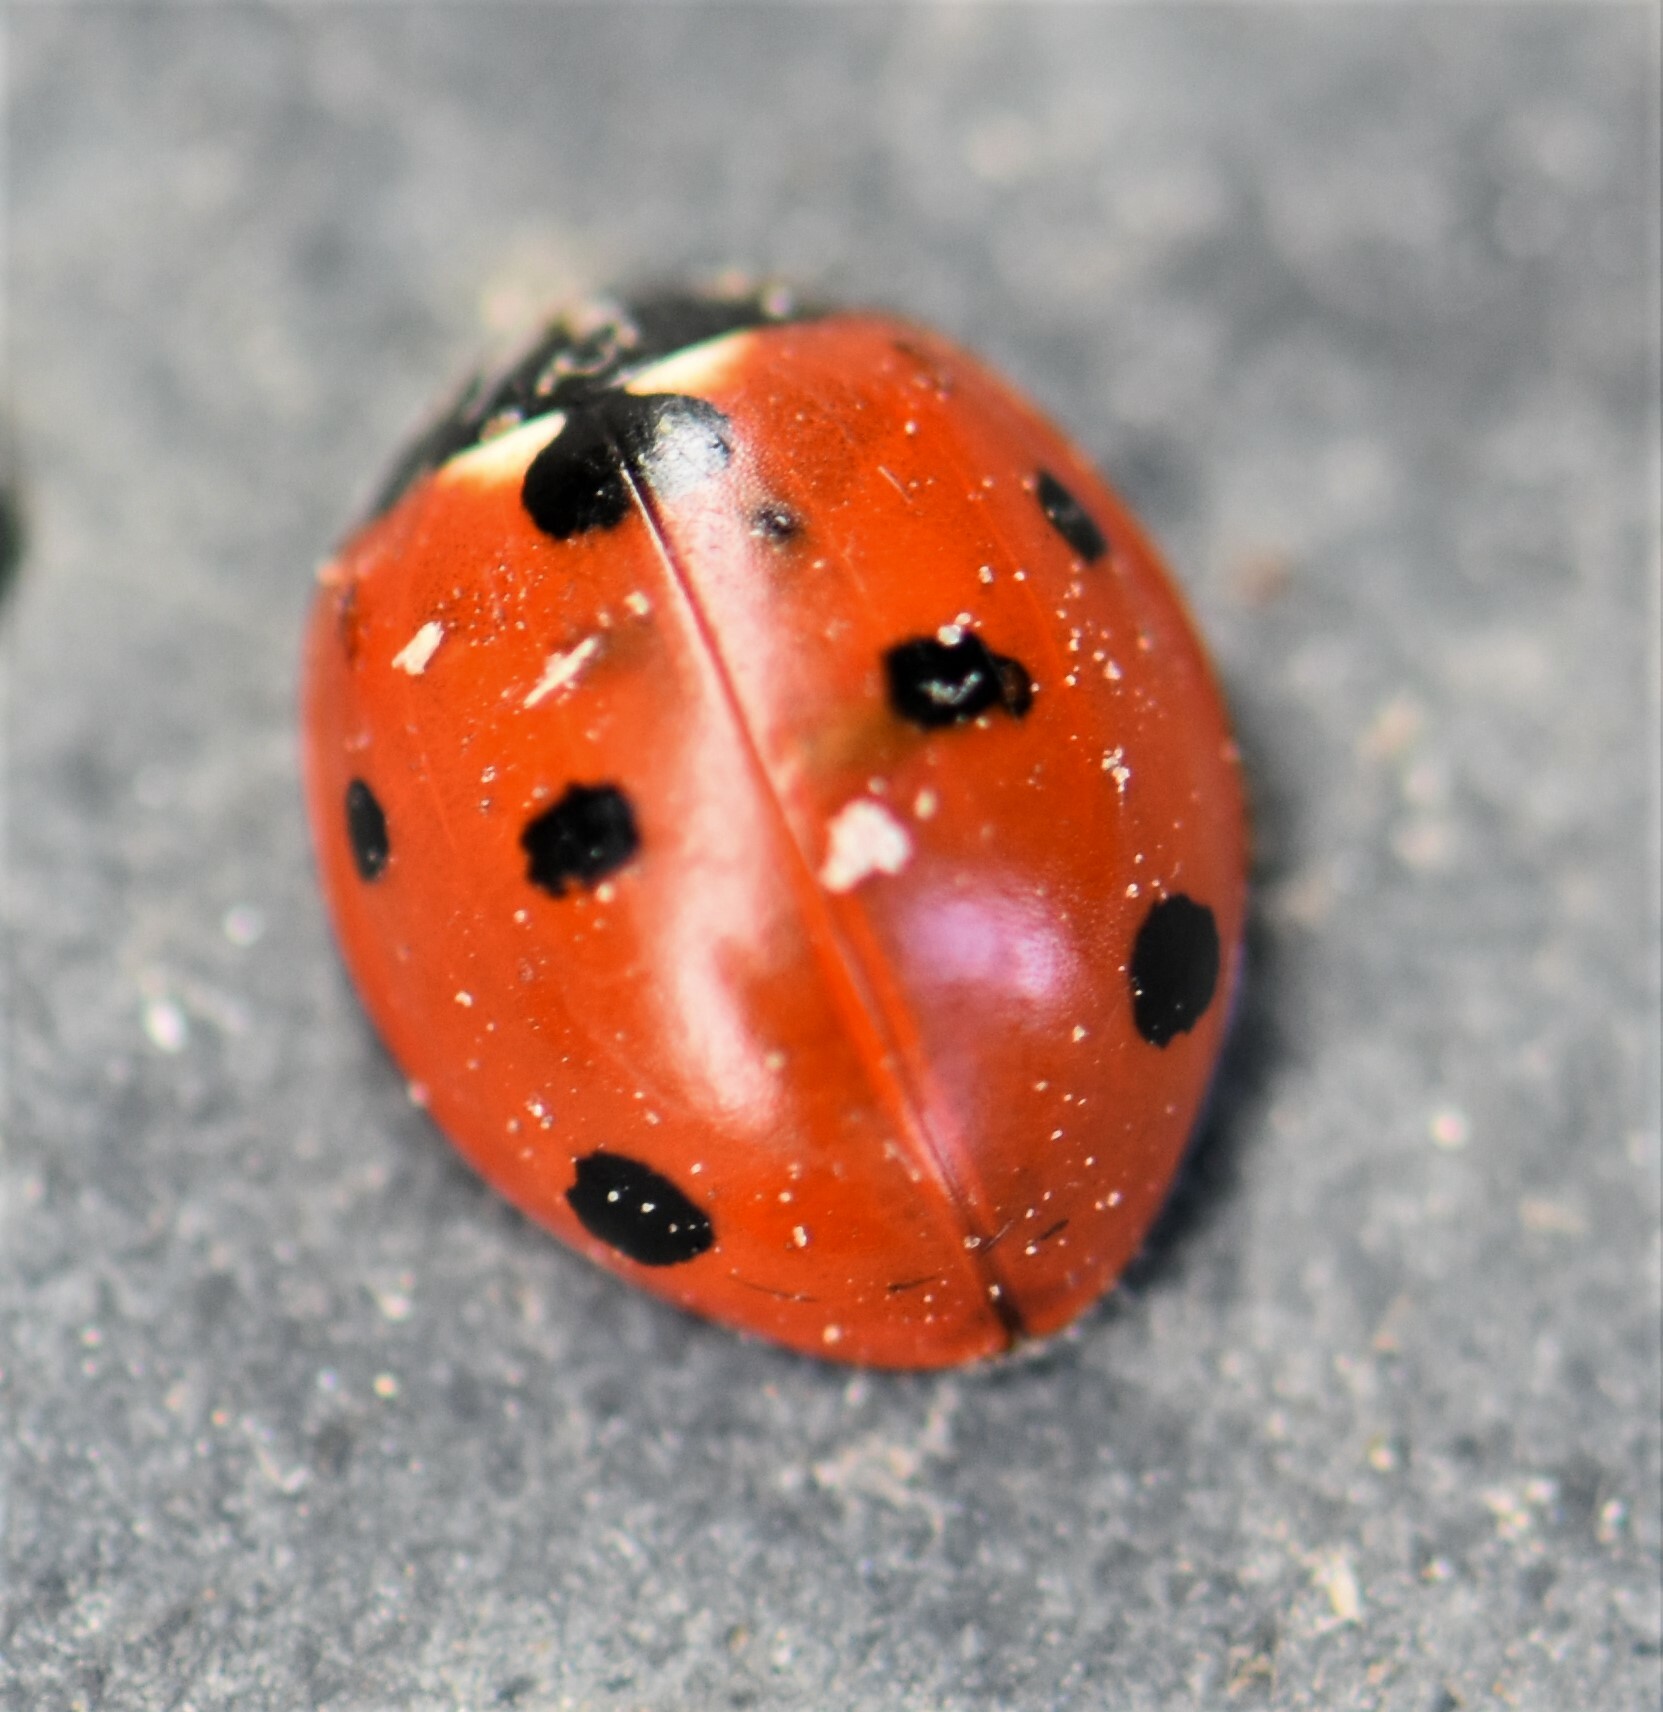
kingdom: Animalia
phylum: Arthropoda
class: Insecta
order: Coleoptera
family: Coccinellidae
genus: Coccinella
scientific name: Coccinella septempunctata
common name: Sevenspotted lady beetle
